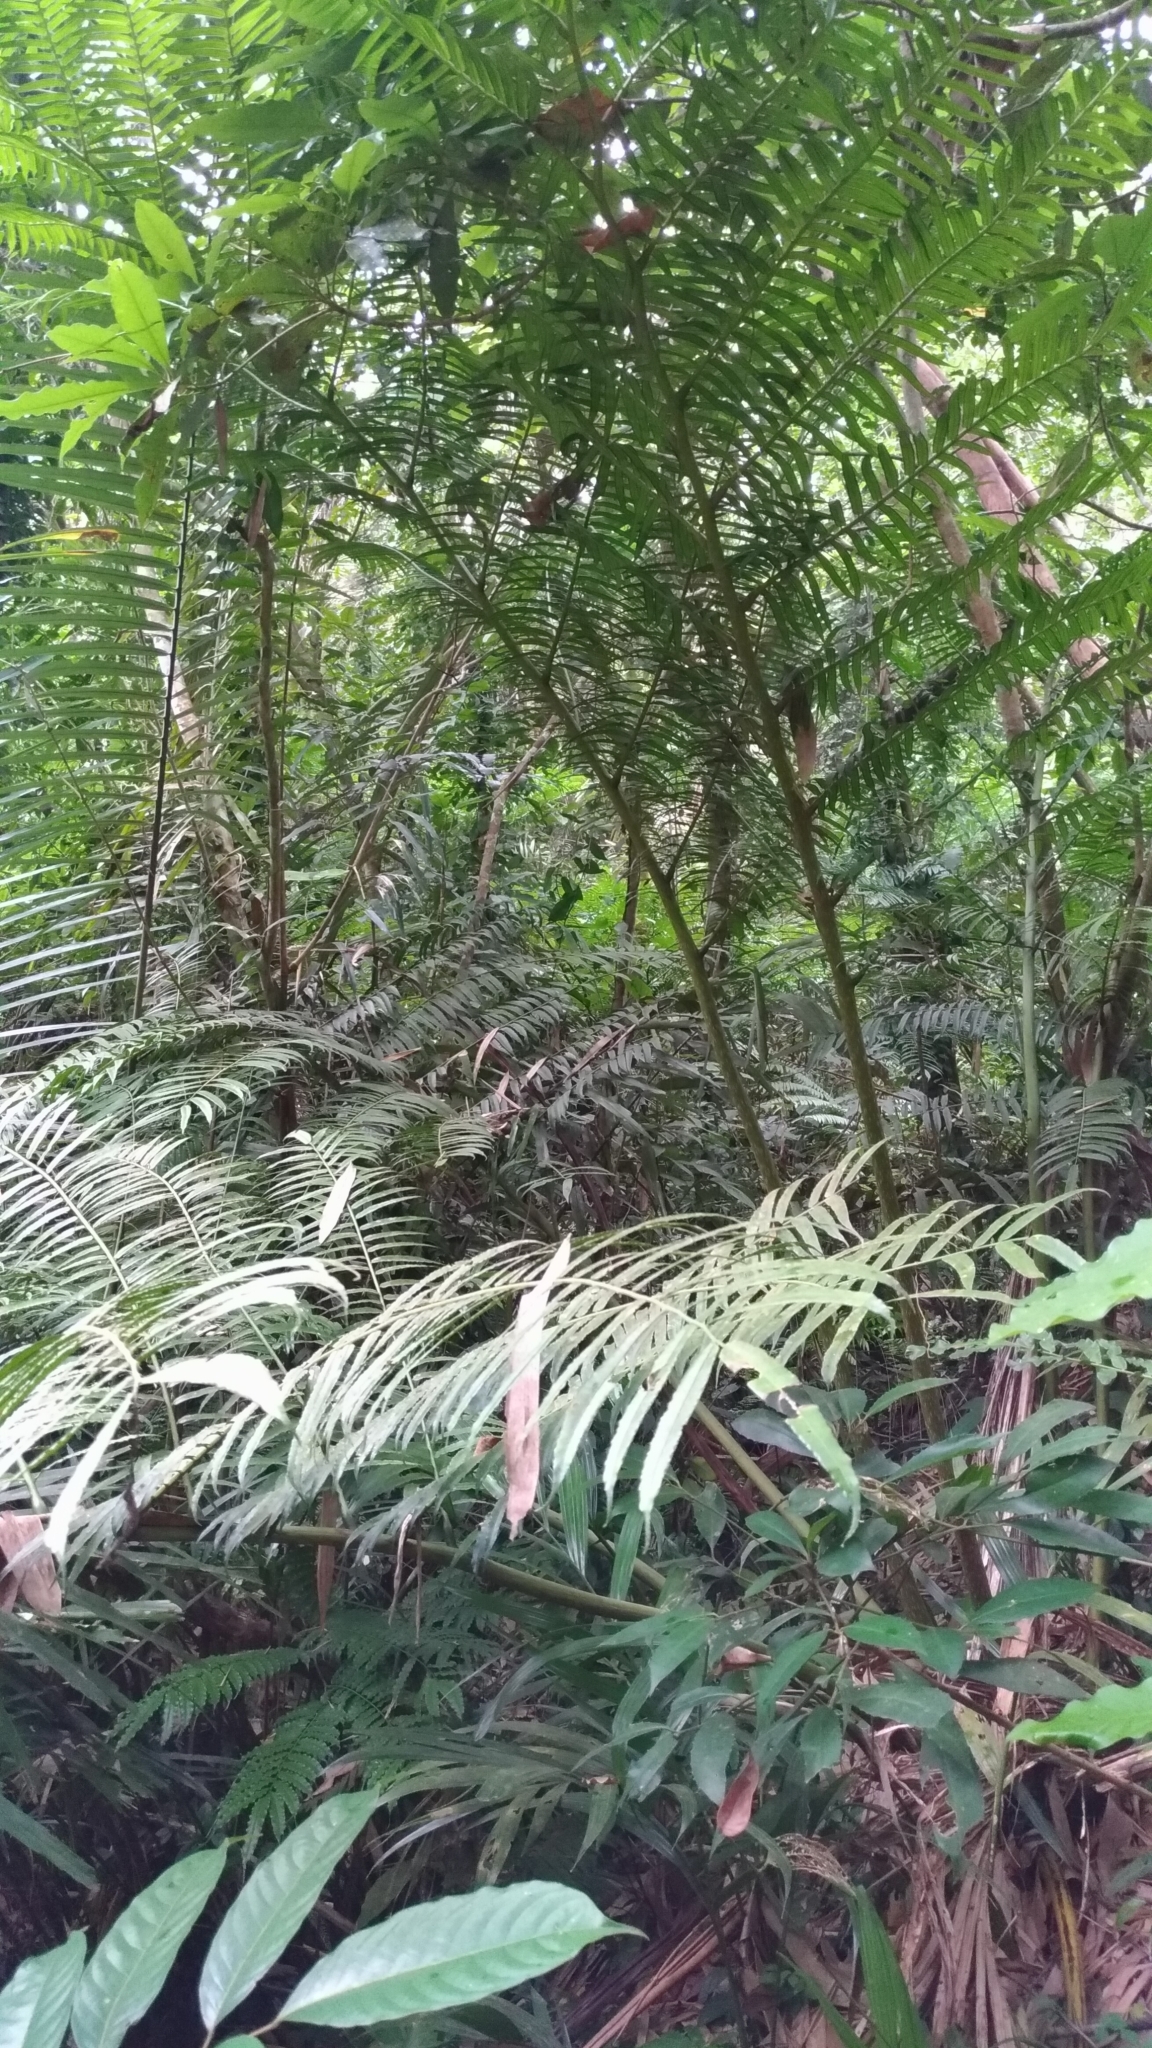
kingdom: Plantae
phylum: Tracheophyta
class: Polypodiopsida
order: Marattiales
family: Marattiaceae
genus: Angiopteris
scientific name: Angiopteris lygodiifolia
